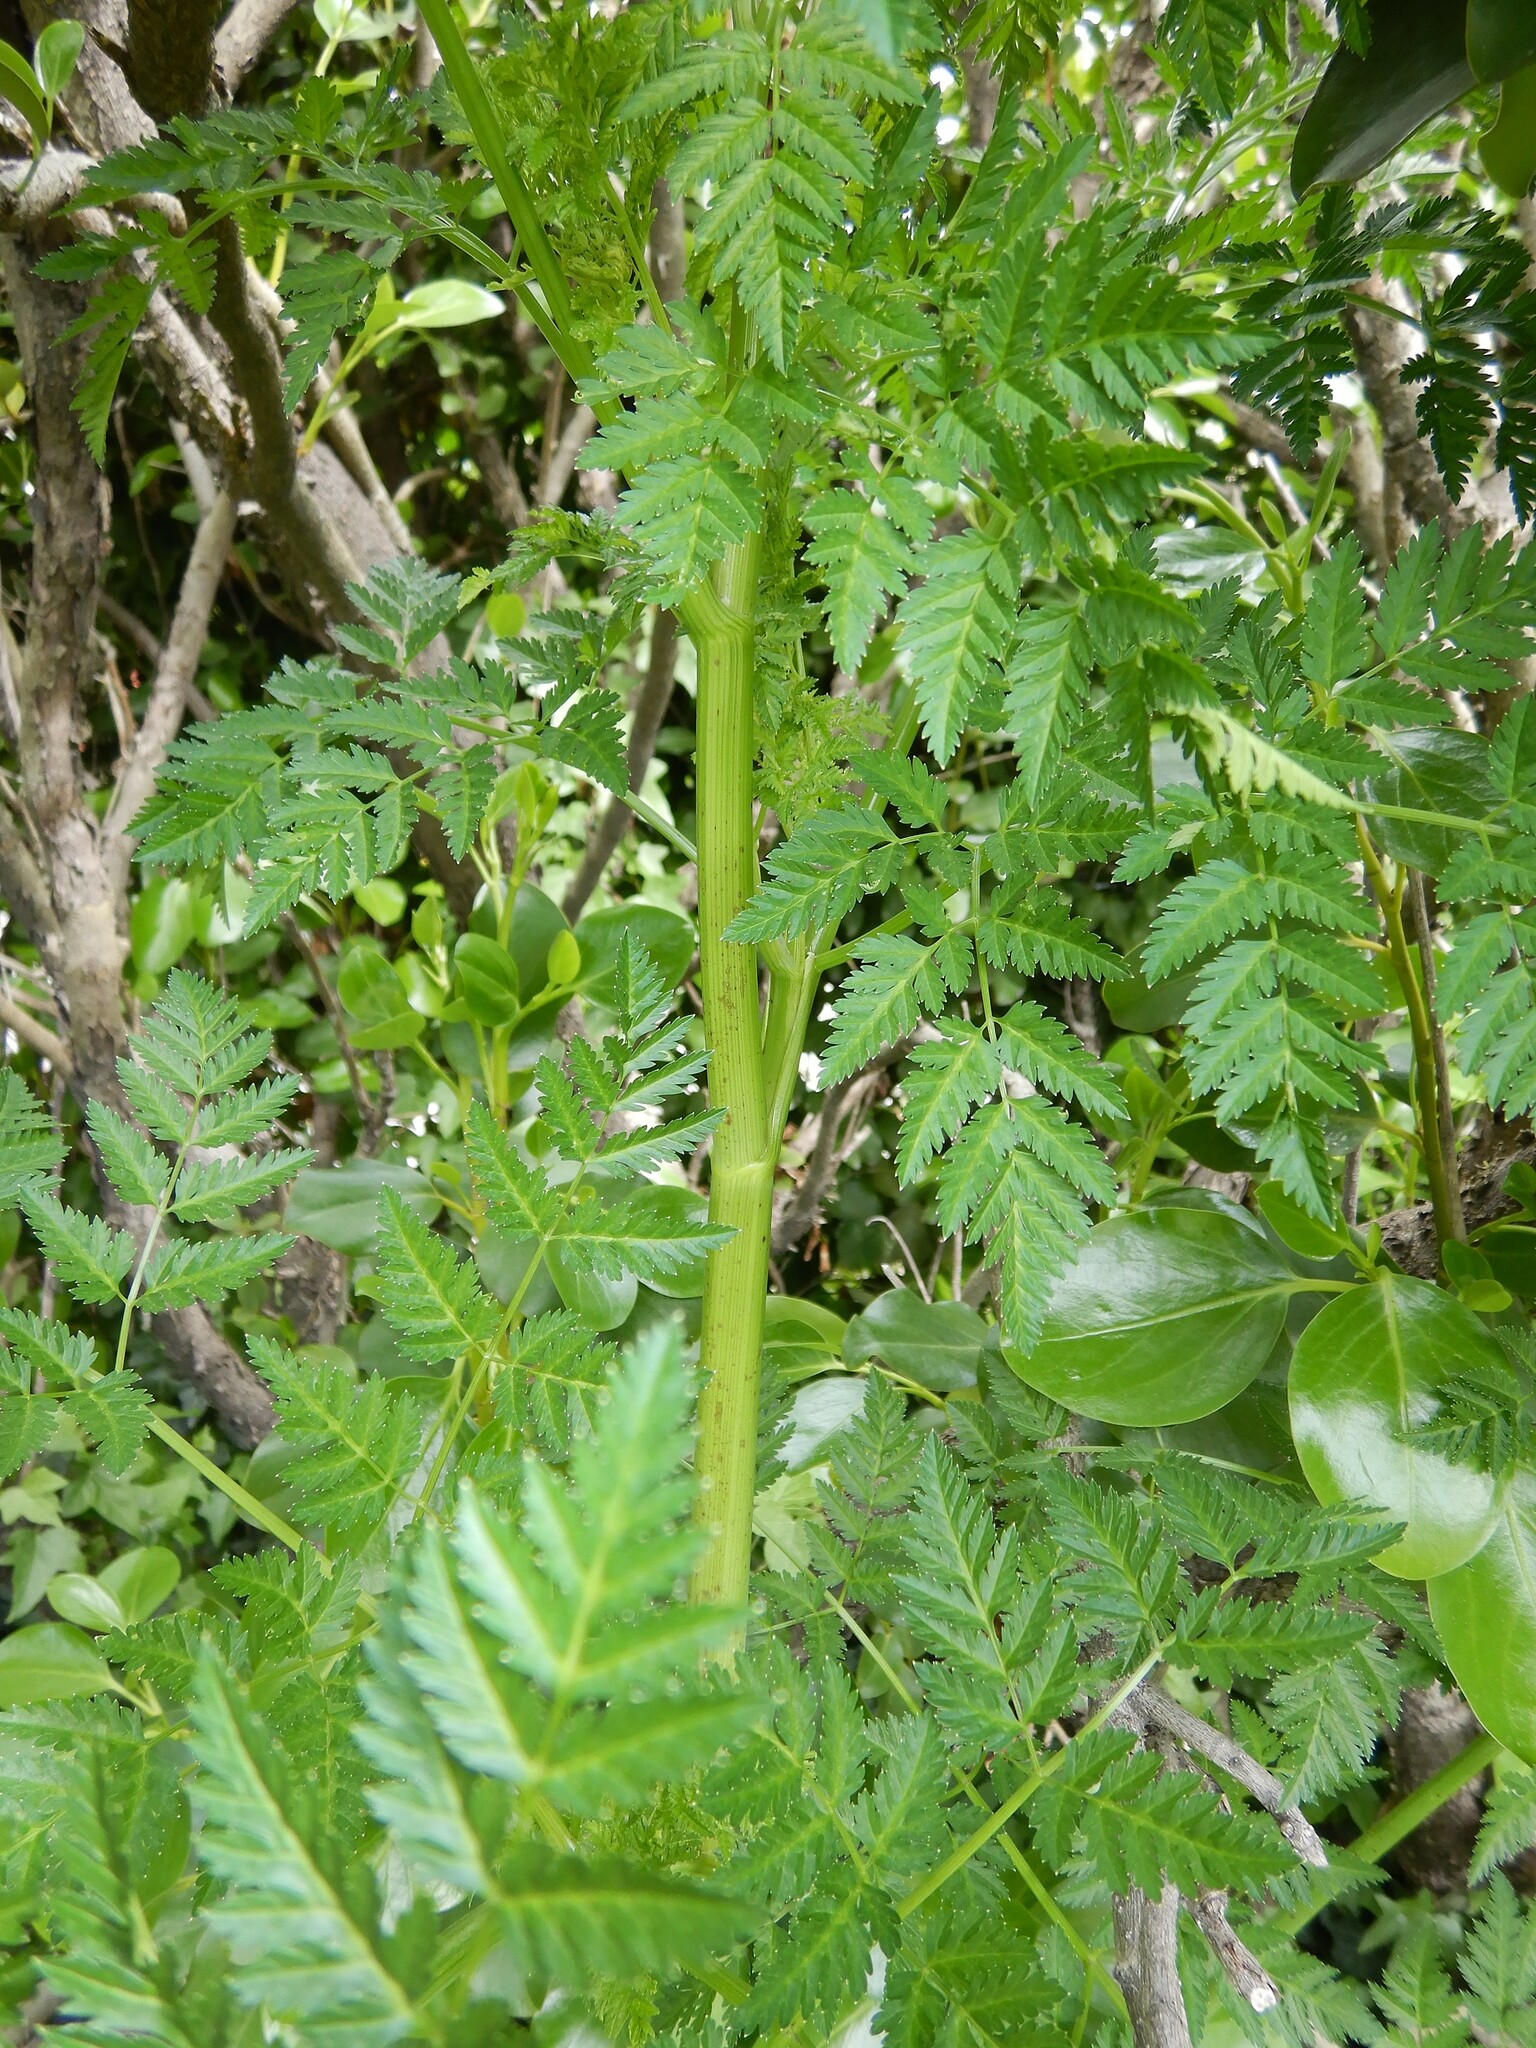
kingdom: Plantae
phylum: Tracheophyta
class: Magnoliopsida
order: Apiales
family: Apiaceae
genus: Conium
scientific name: Conium maculatum
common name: Hemlock
